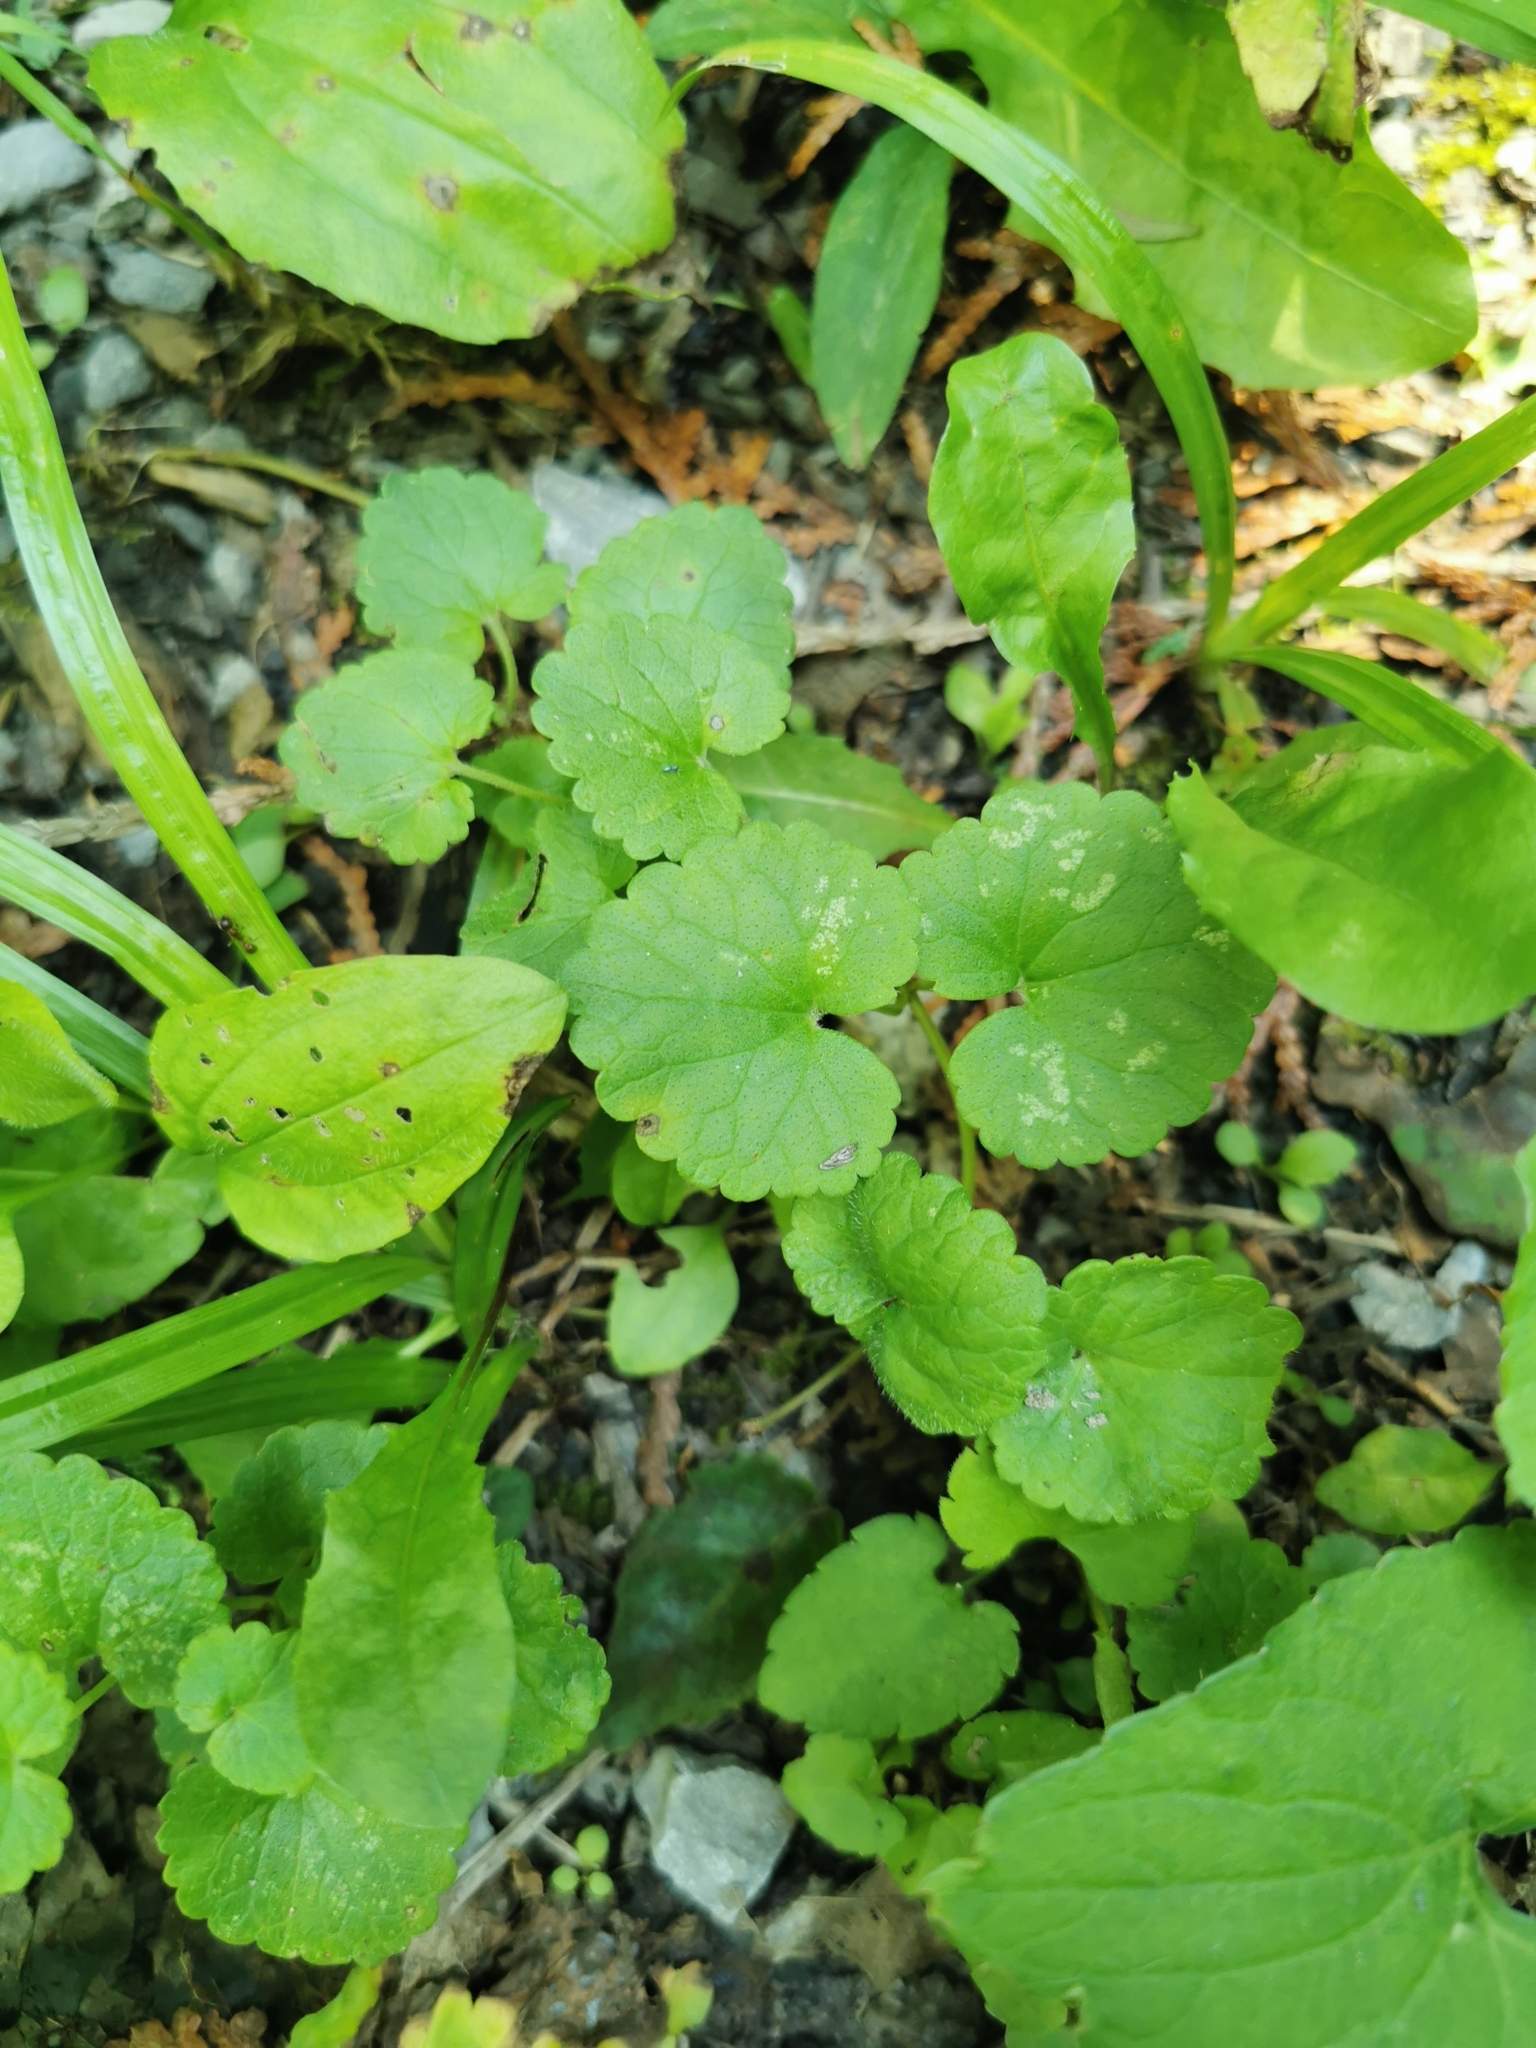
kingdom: Plantae
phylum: Tracheophyta
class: Magnoliopsida
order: Lamiales
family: Lamiaceae
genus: Glechoma
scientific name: Glechoma hederacea
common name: Ground ivy
